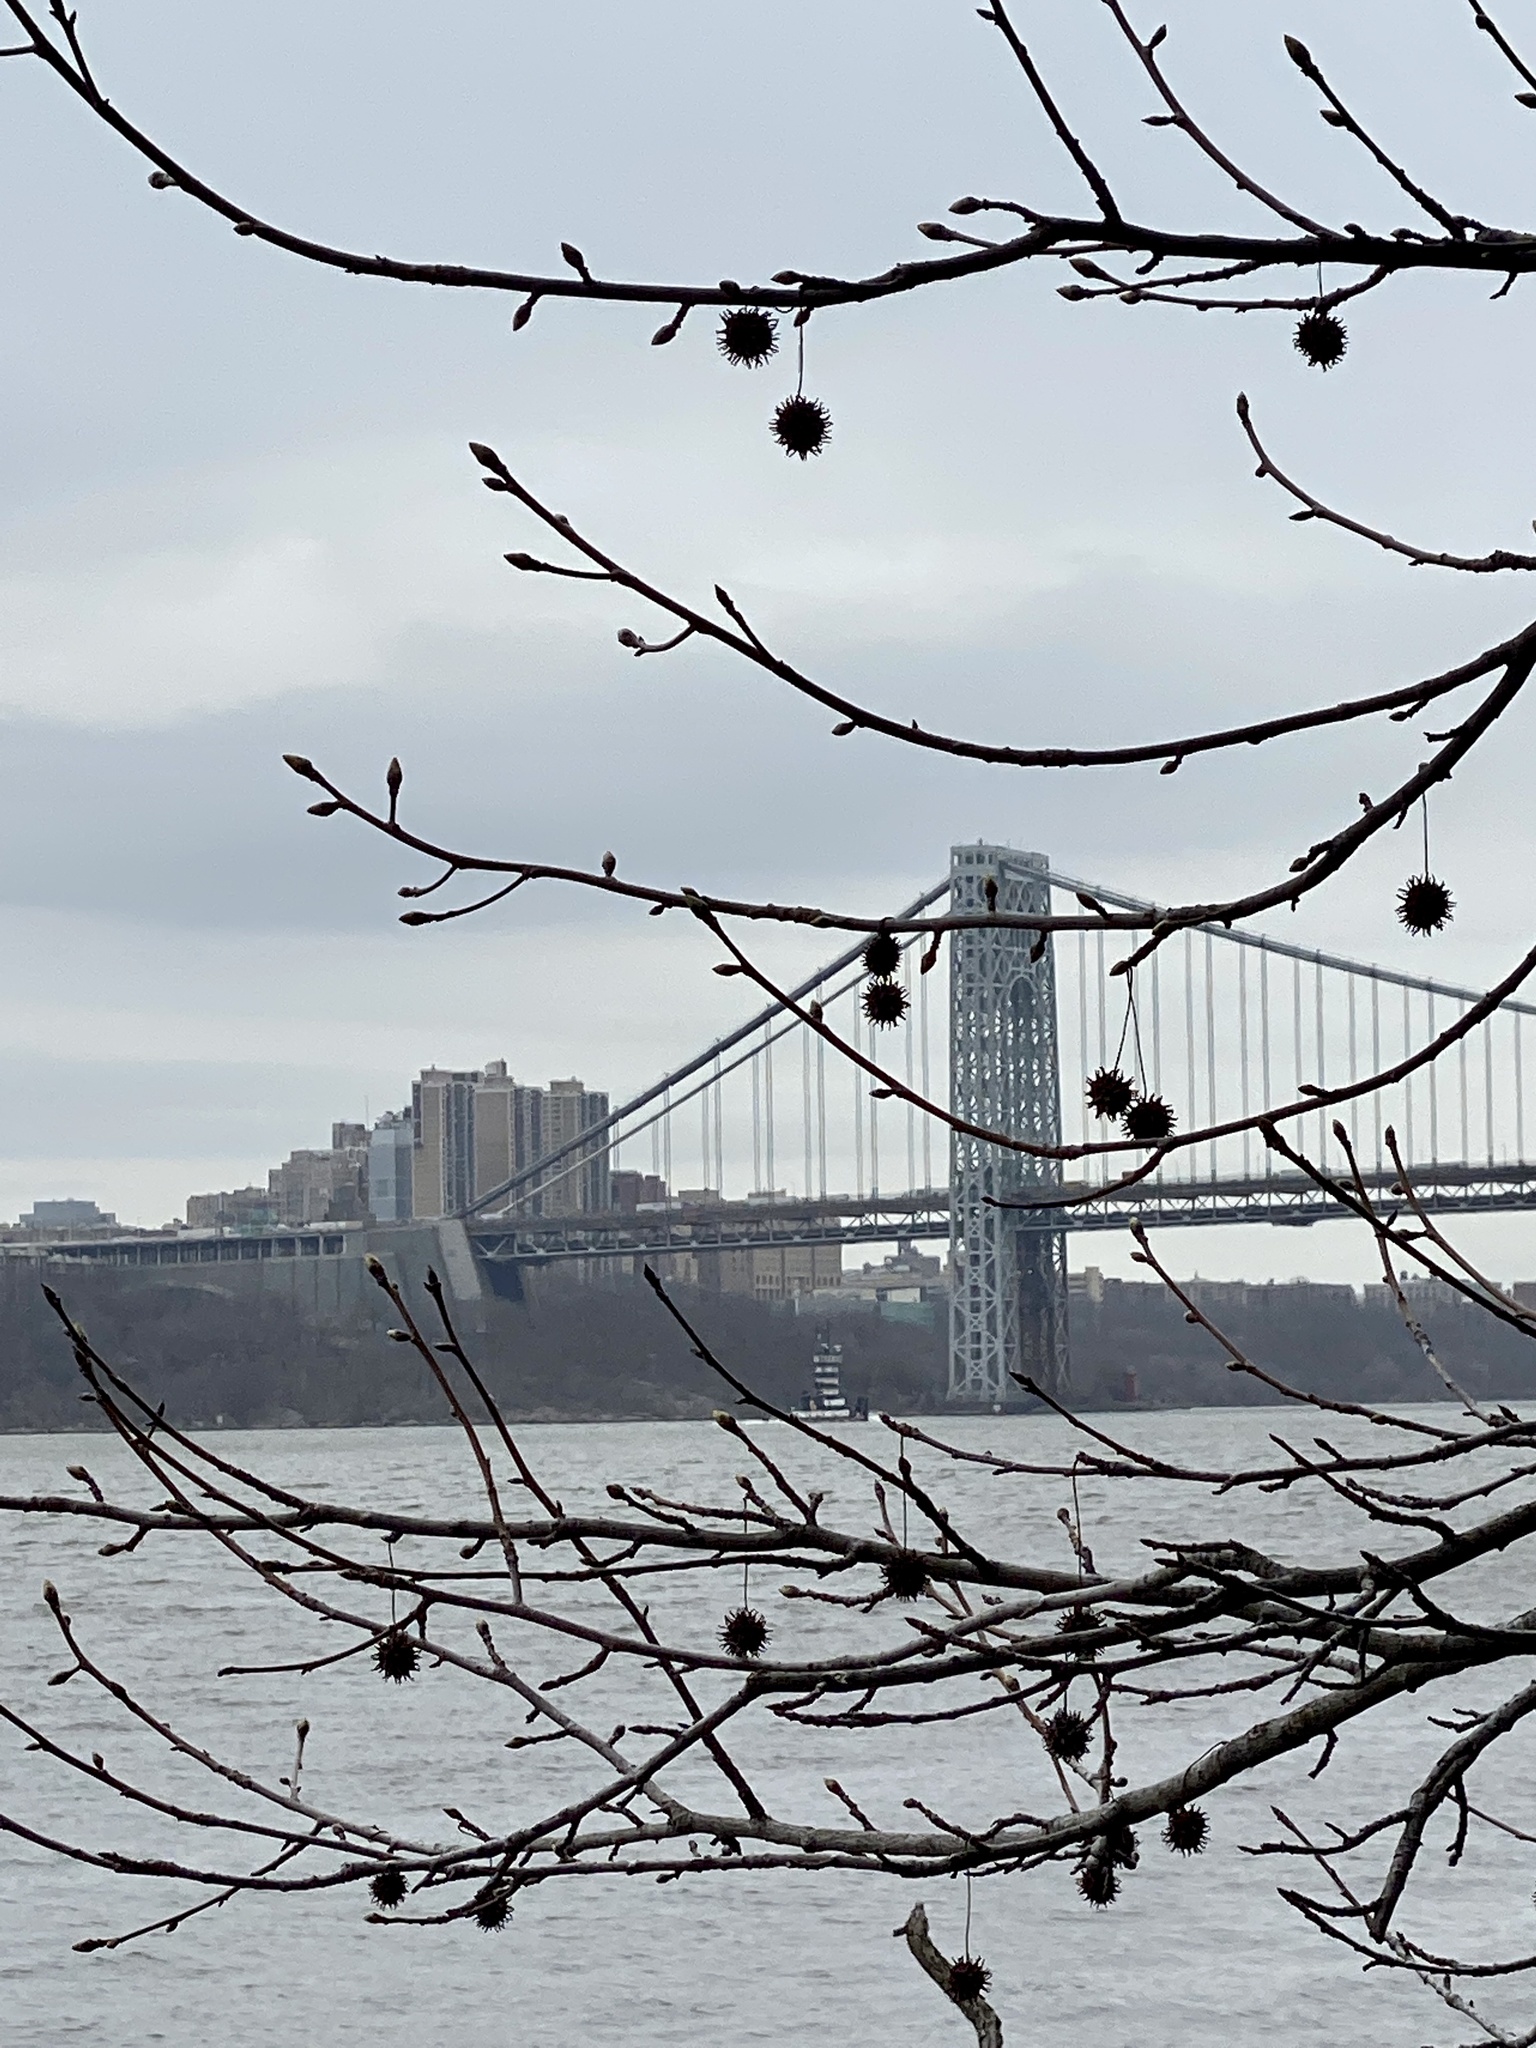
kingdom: Plantae
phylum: Tracheophyta
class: Magnoliopsida
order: Saxifragales
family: Altingiaceae
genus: Liquidambar
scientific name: Liquidambar styraciflua
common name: Sweet gum
